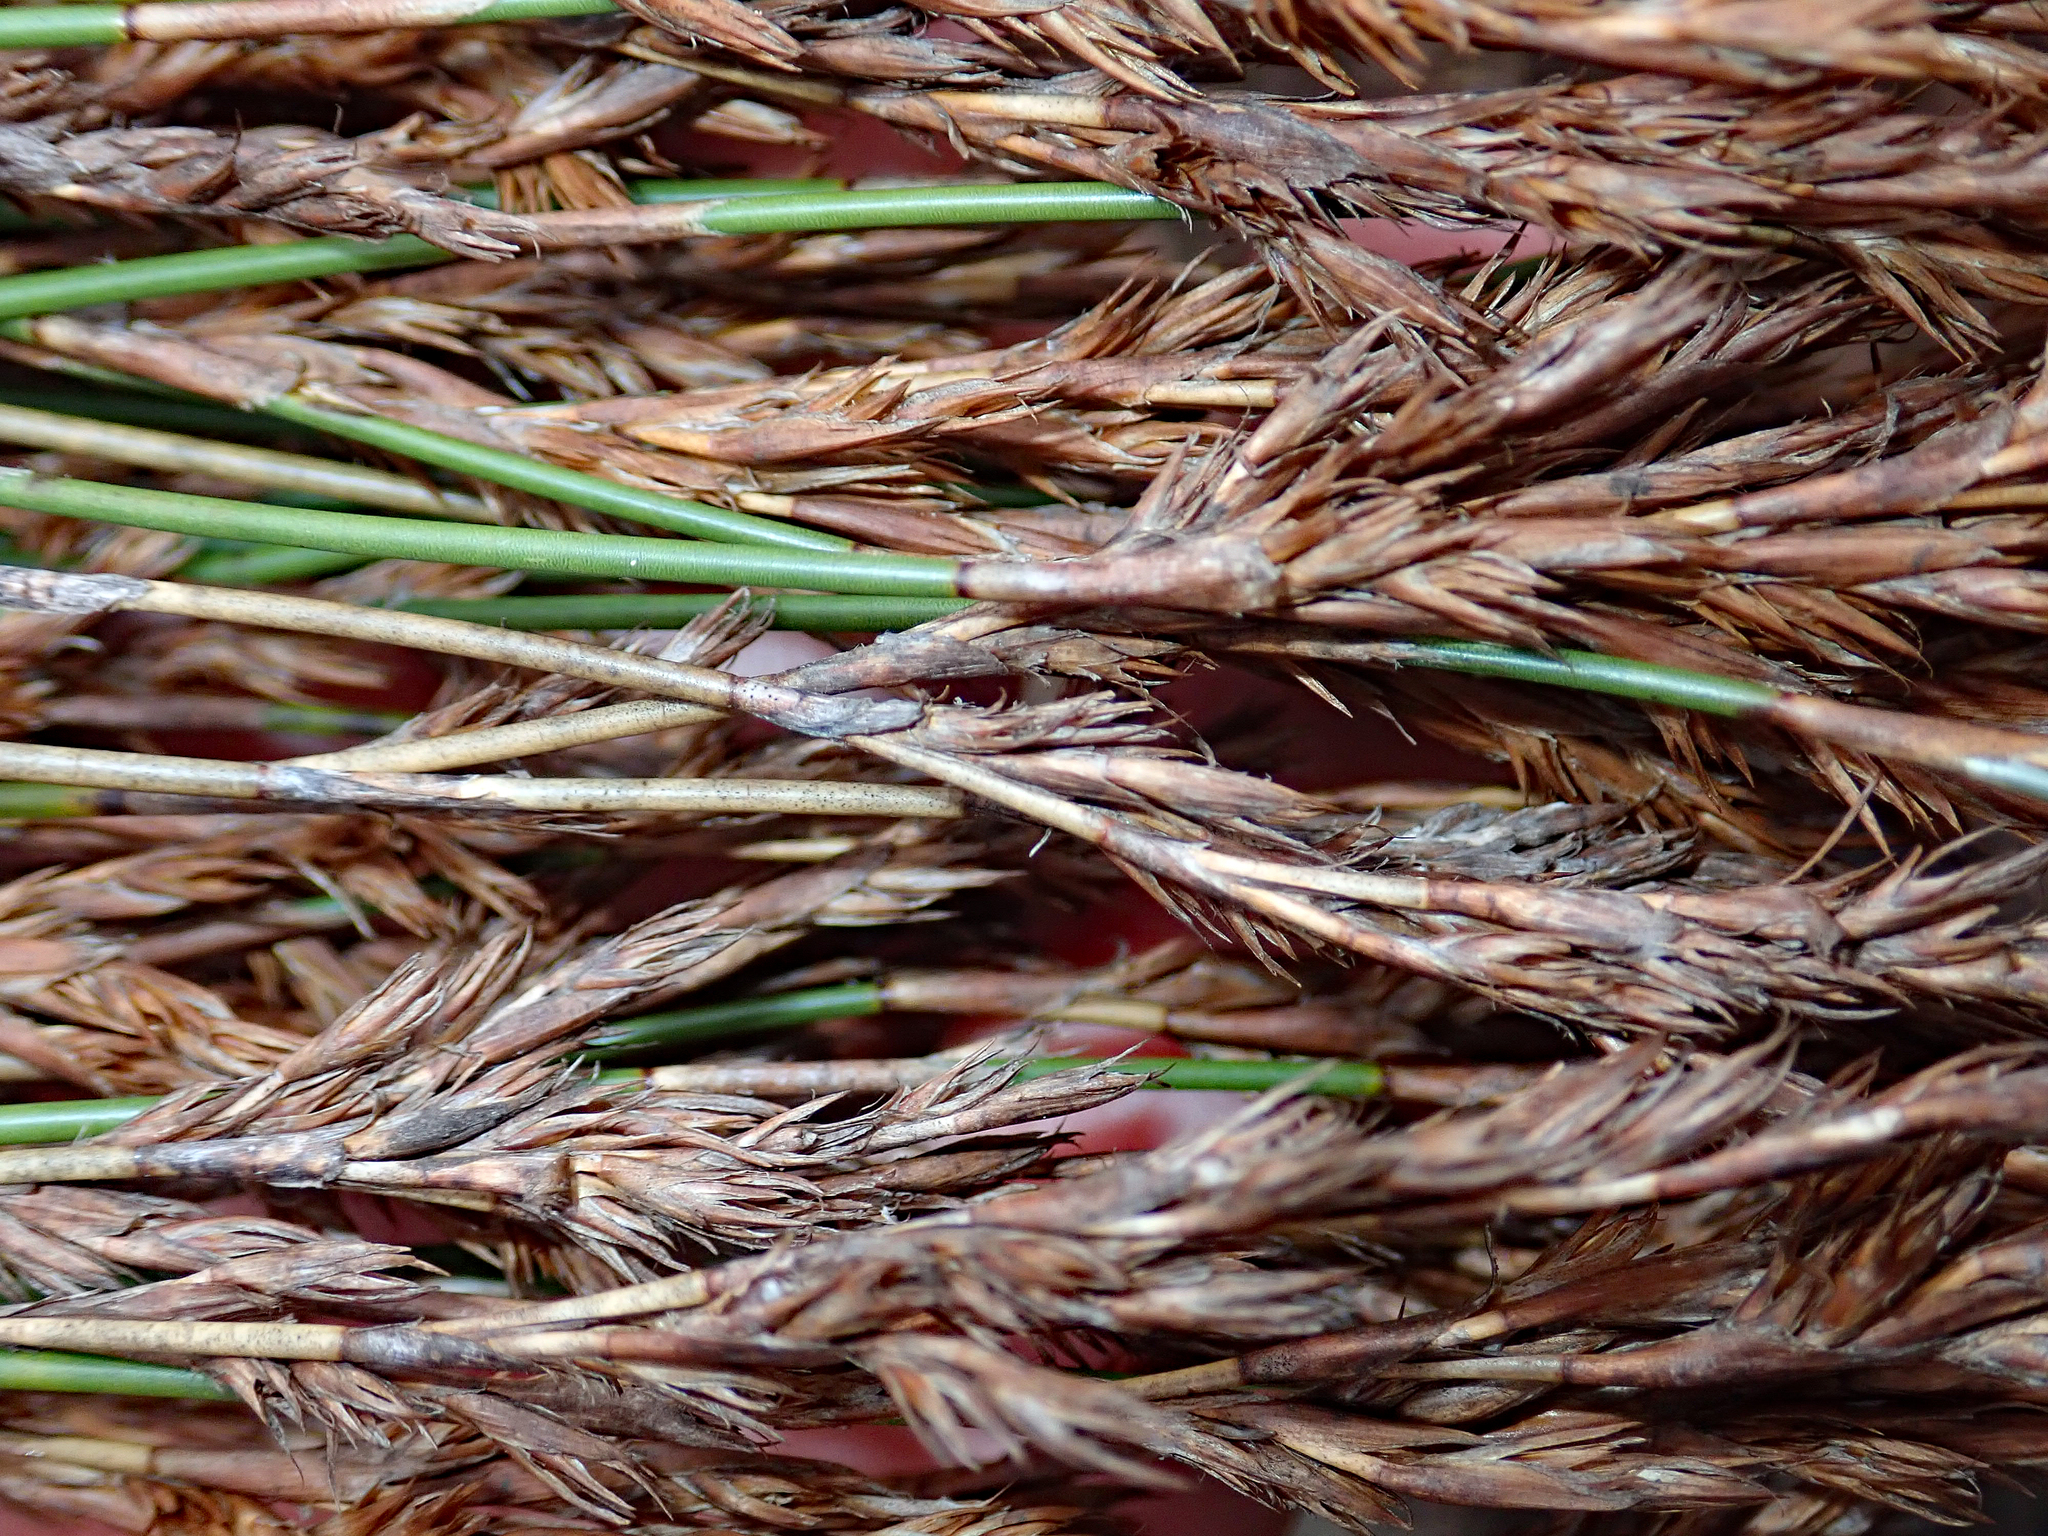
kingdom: Plantae
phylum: Tracheophyta
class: Liliopsida
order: Poales
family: Restionaceae
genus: Sporadanthus
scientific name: Sporadanthus traversii
